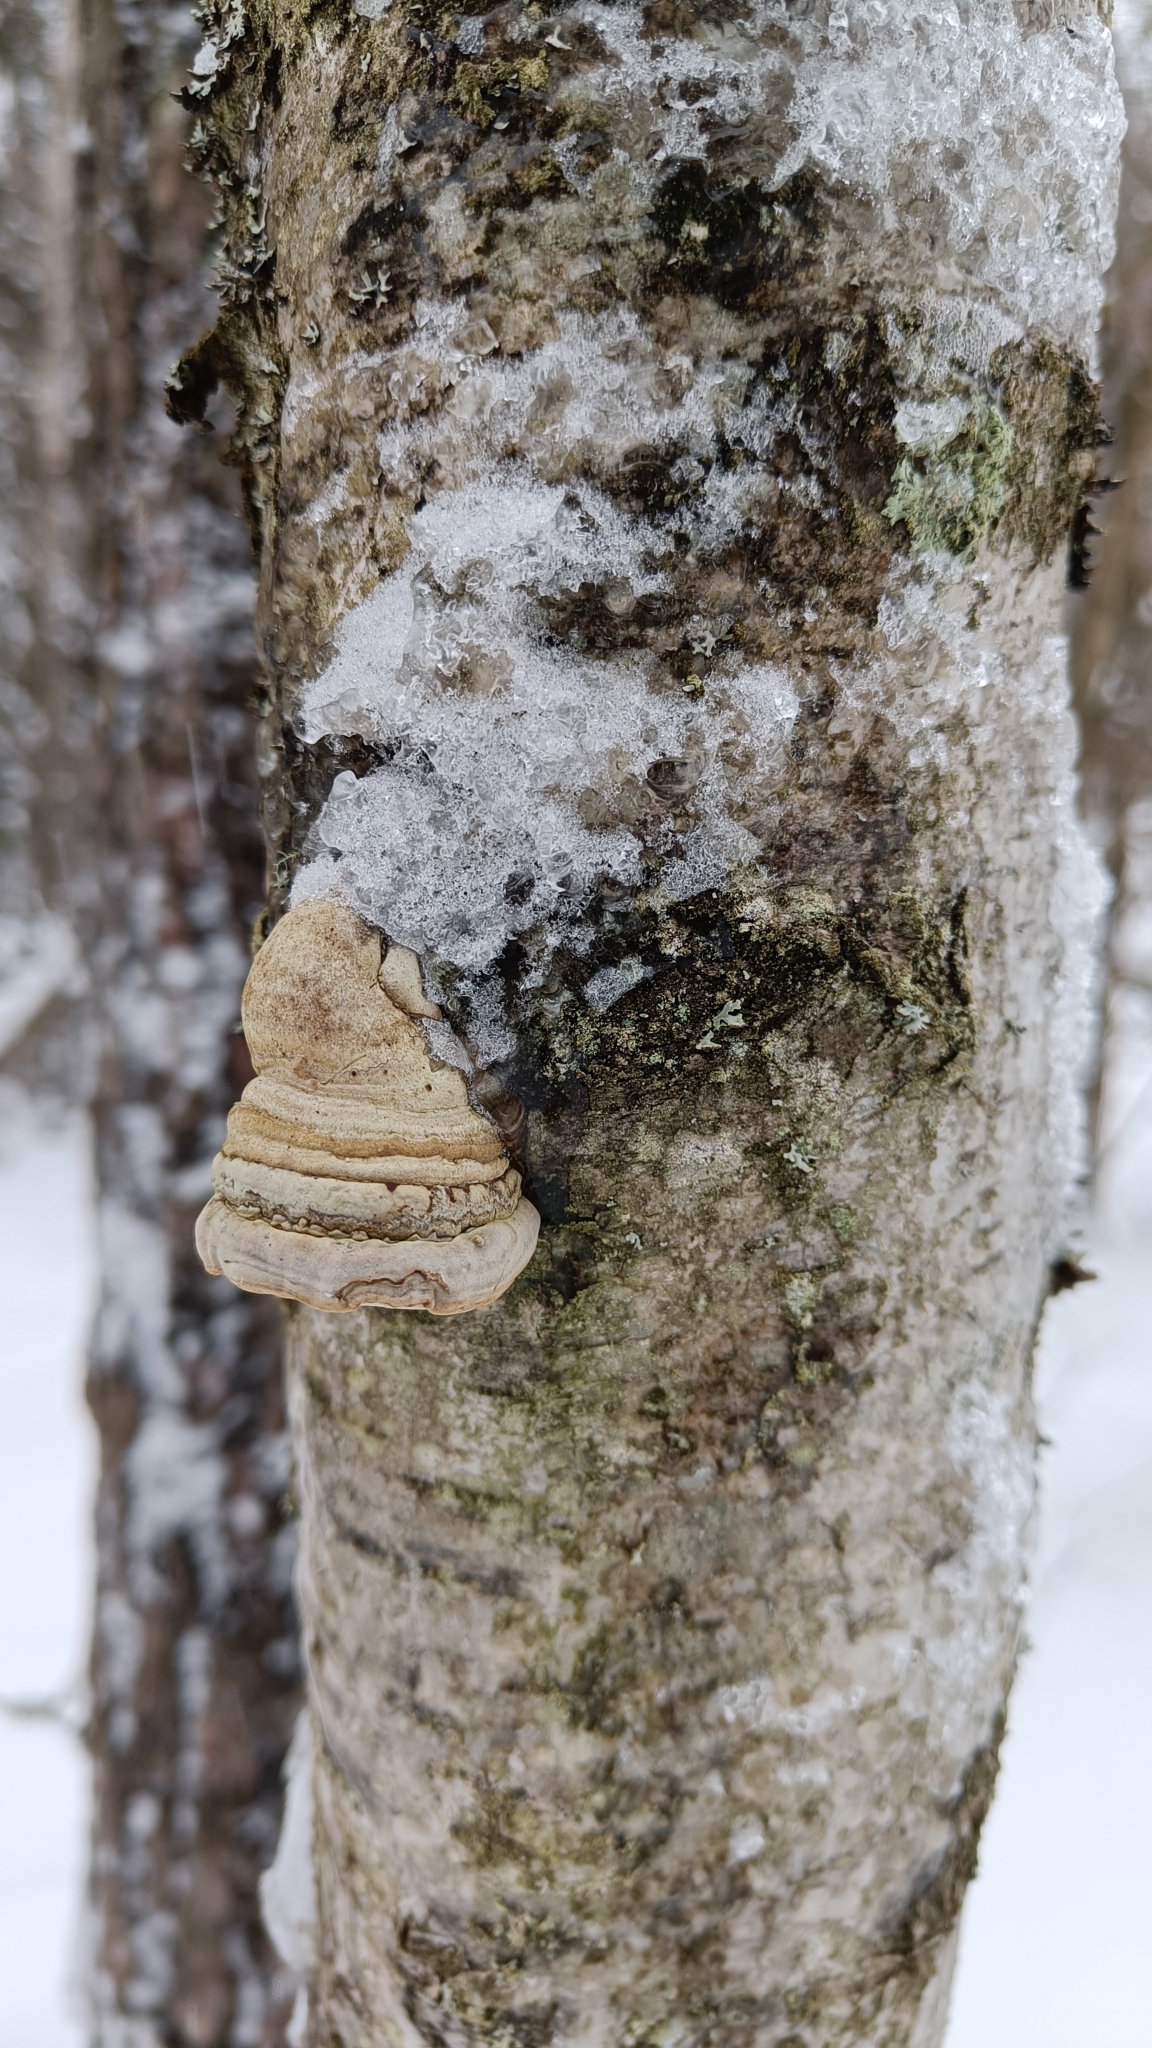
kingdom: Fungi
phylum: Basidiomycota
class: Agaricomycetes
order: Polyporales
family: Polyporaceae
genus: Fomes
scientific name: Fomes fomentarius
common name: Hoof fungus
